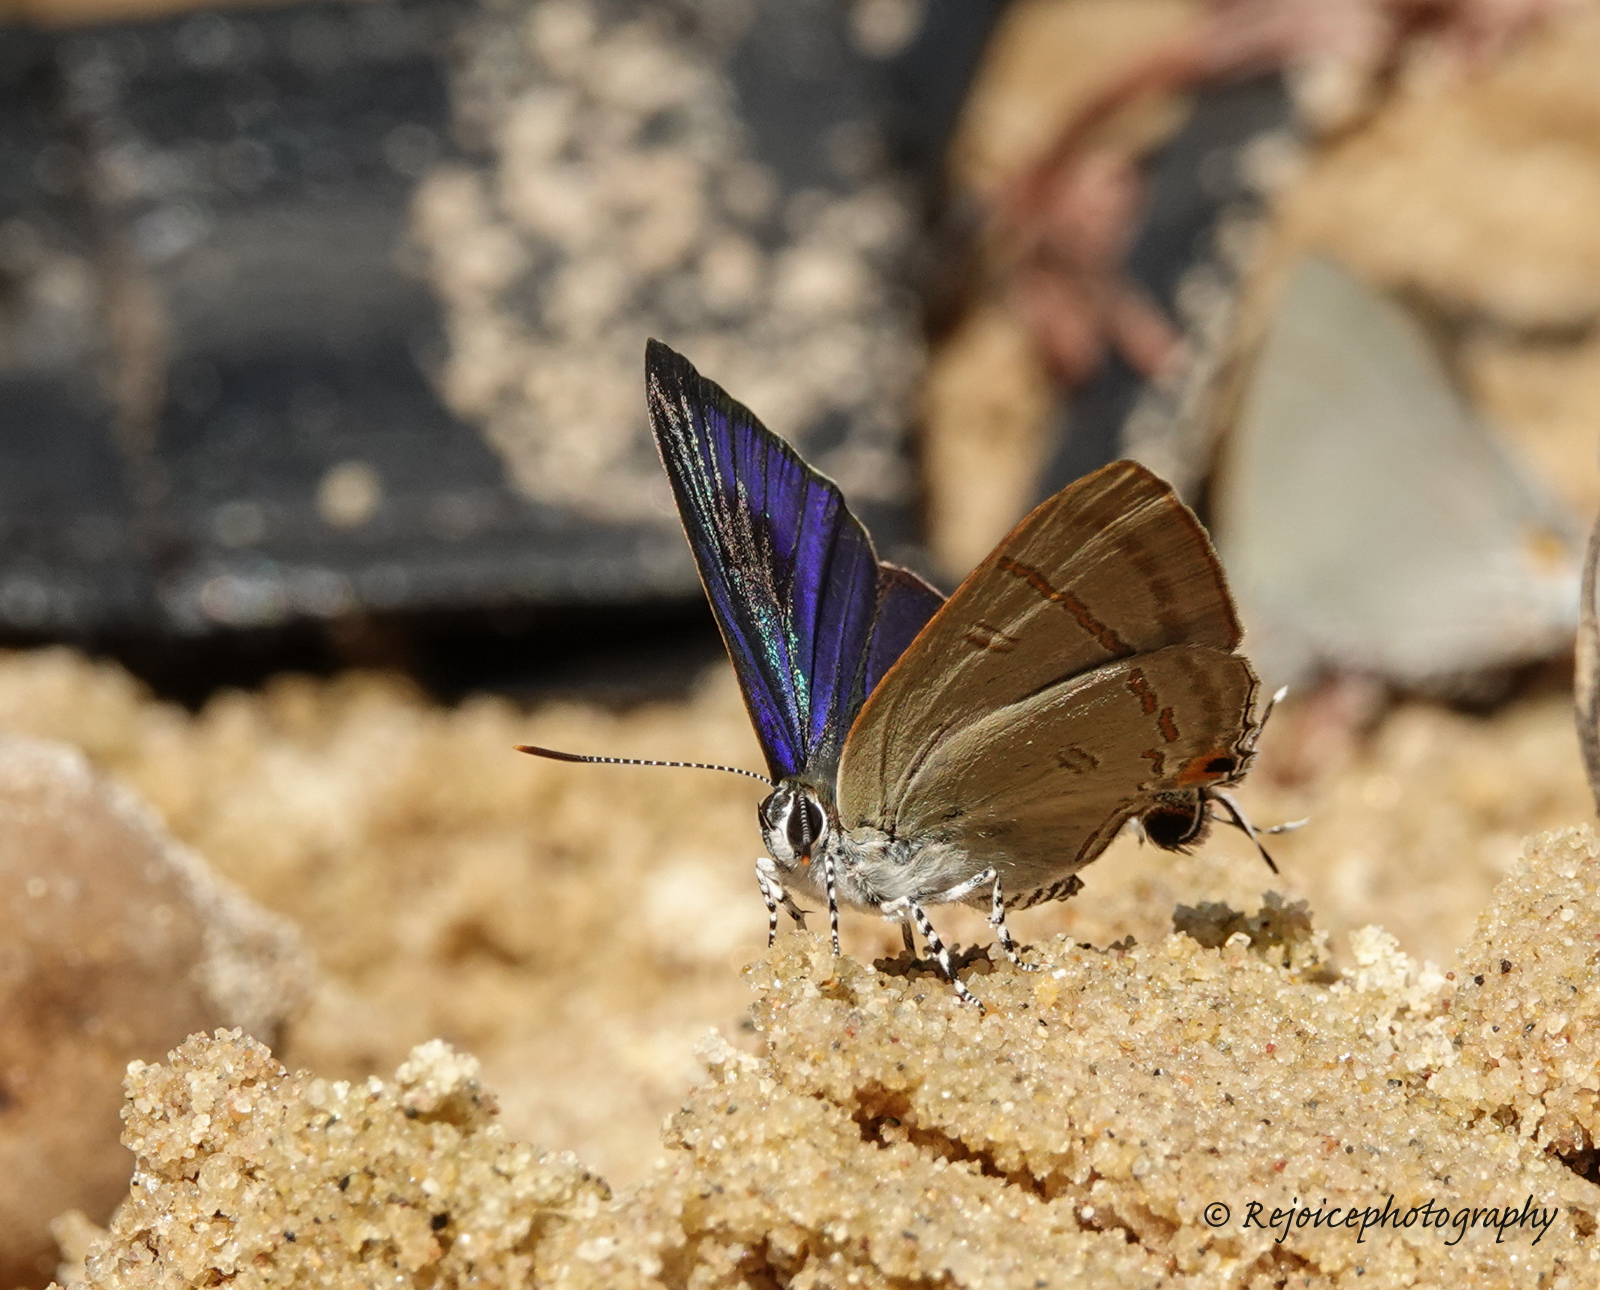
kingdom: Animalia
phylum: Arthropoda
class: Insecta
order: Lepidoptera
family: Lycaenidae
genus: Hypolycaena
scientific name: Hypolycaena erylus
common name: Common tit
